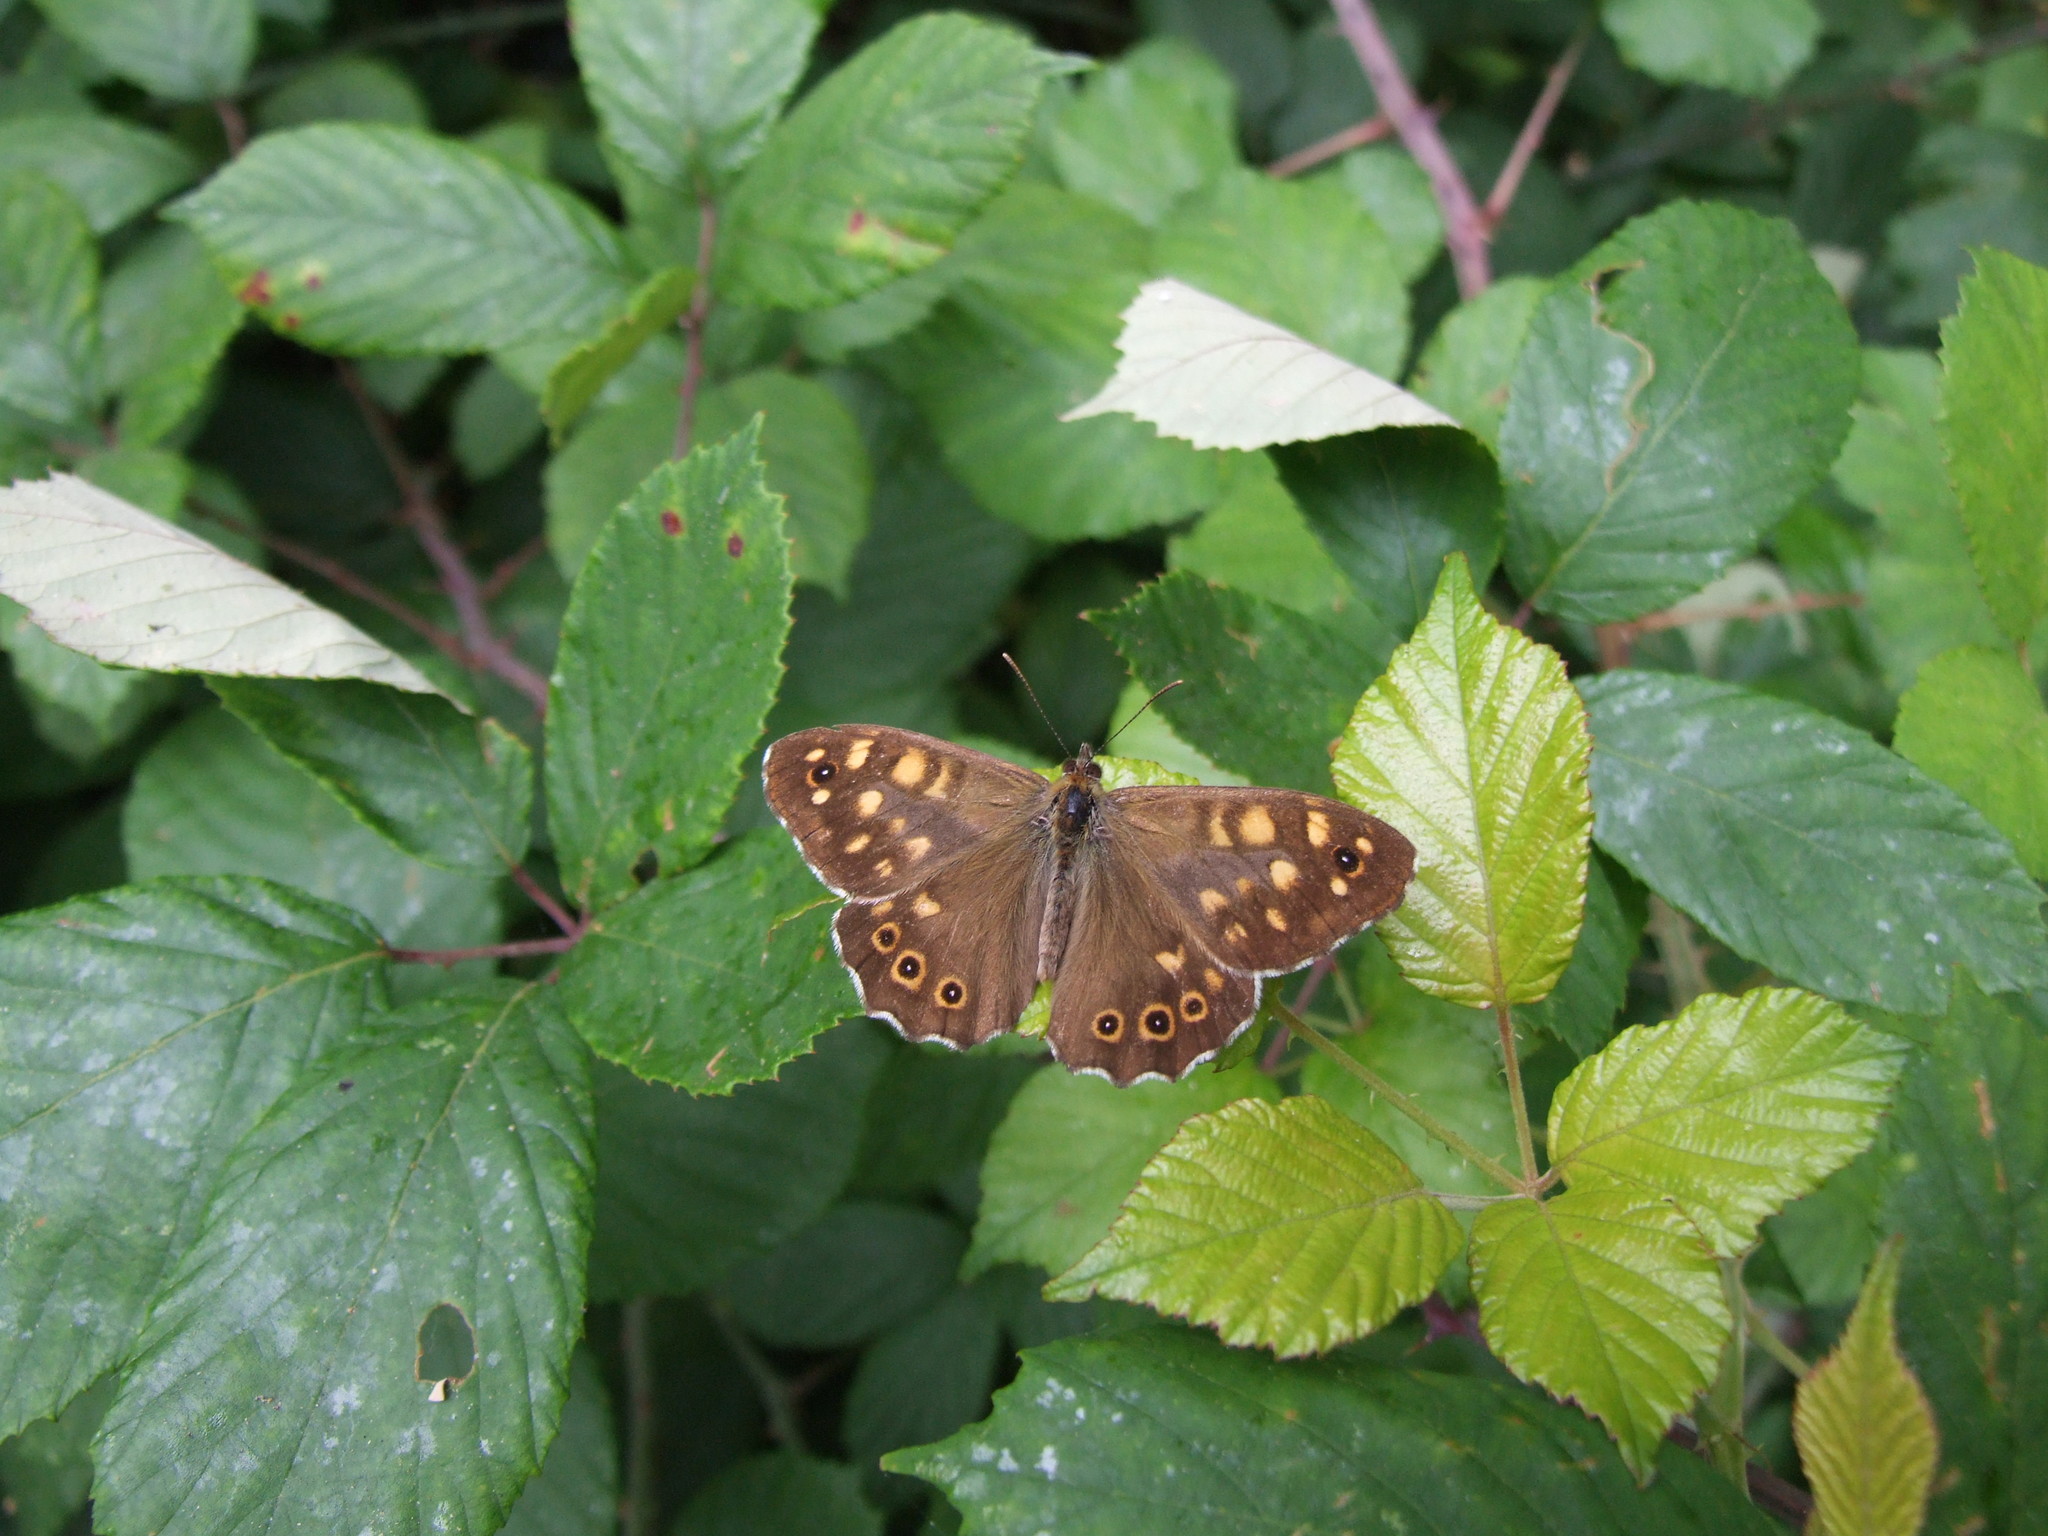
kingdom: Animalia
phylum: Arthropoda
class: Insecta
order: Lepidoptera
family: Nymphalidae
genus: Pararge
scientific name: Pararge aegeria
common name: Speckled wood
